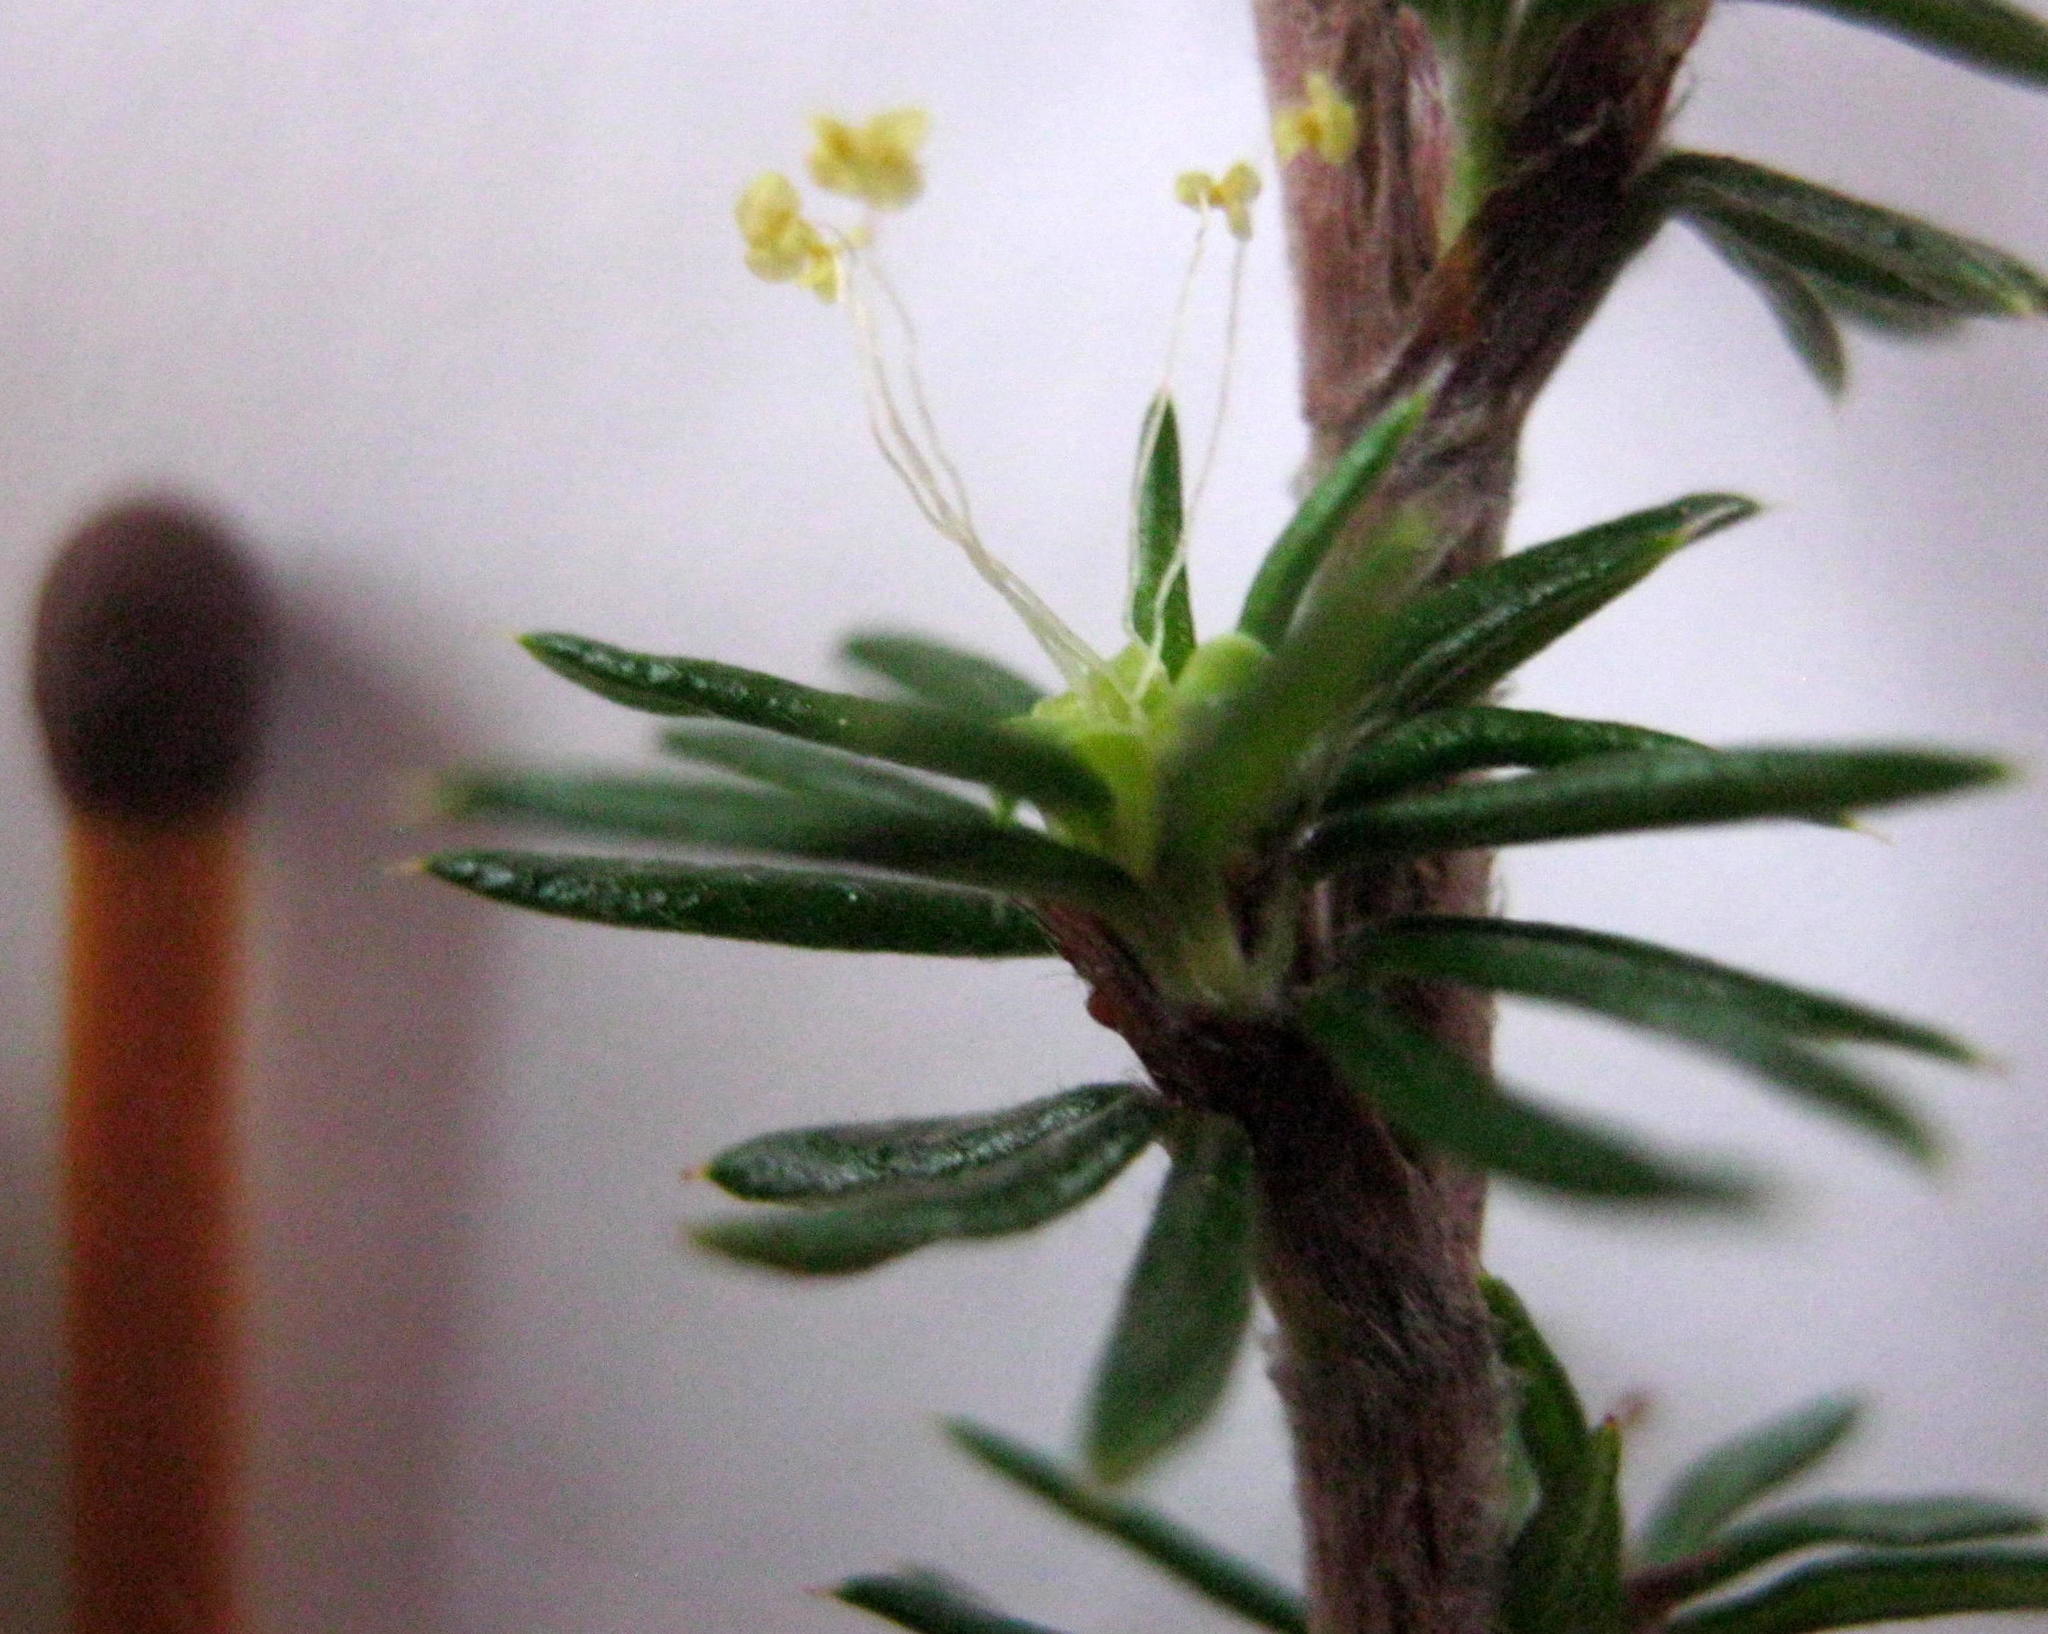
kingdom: Plantae
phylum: Tracheophyta
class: Magnoliopsida
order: Rosales
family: Rosaceae
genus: Cliffortia
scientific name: Cliffortia stricta
